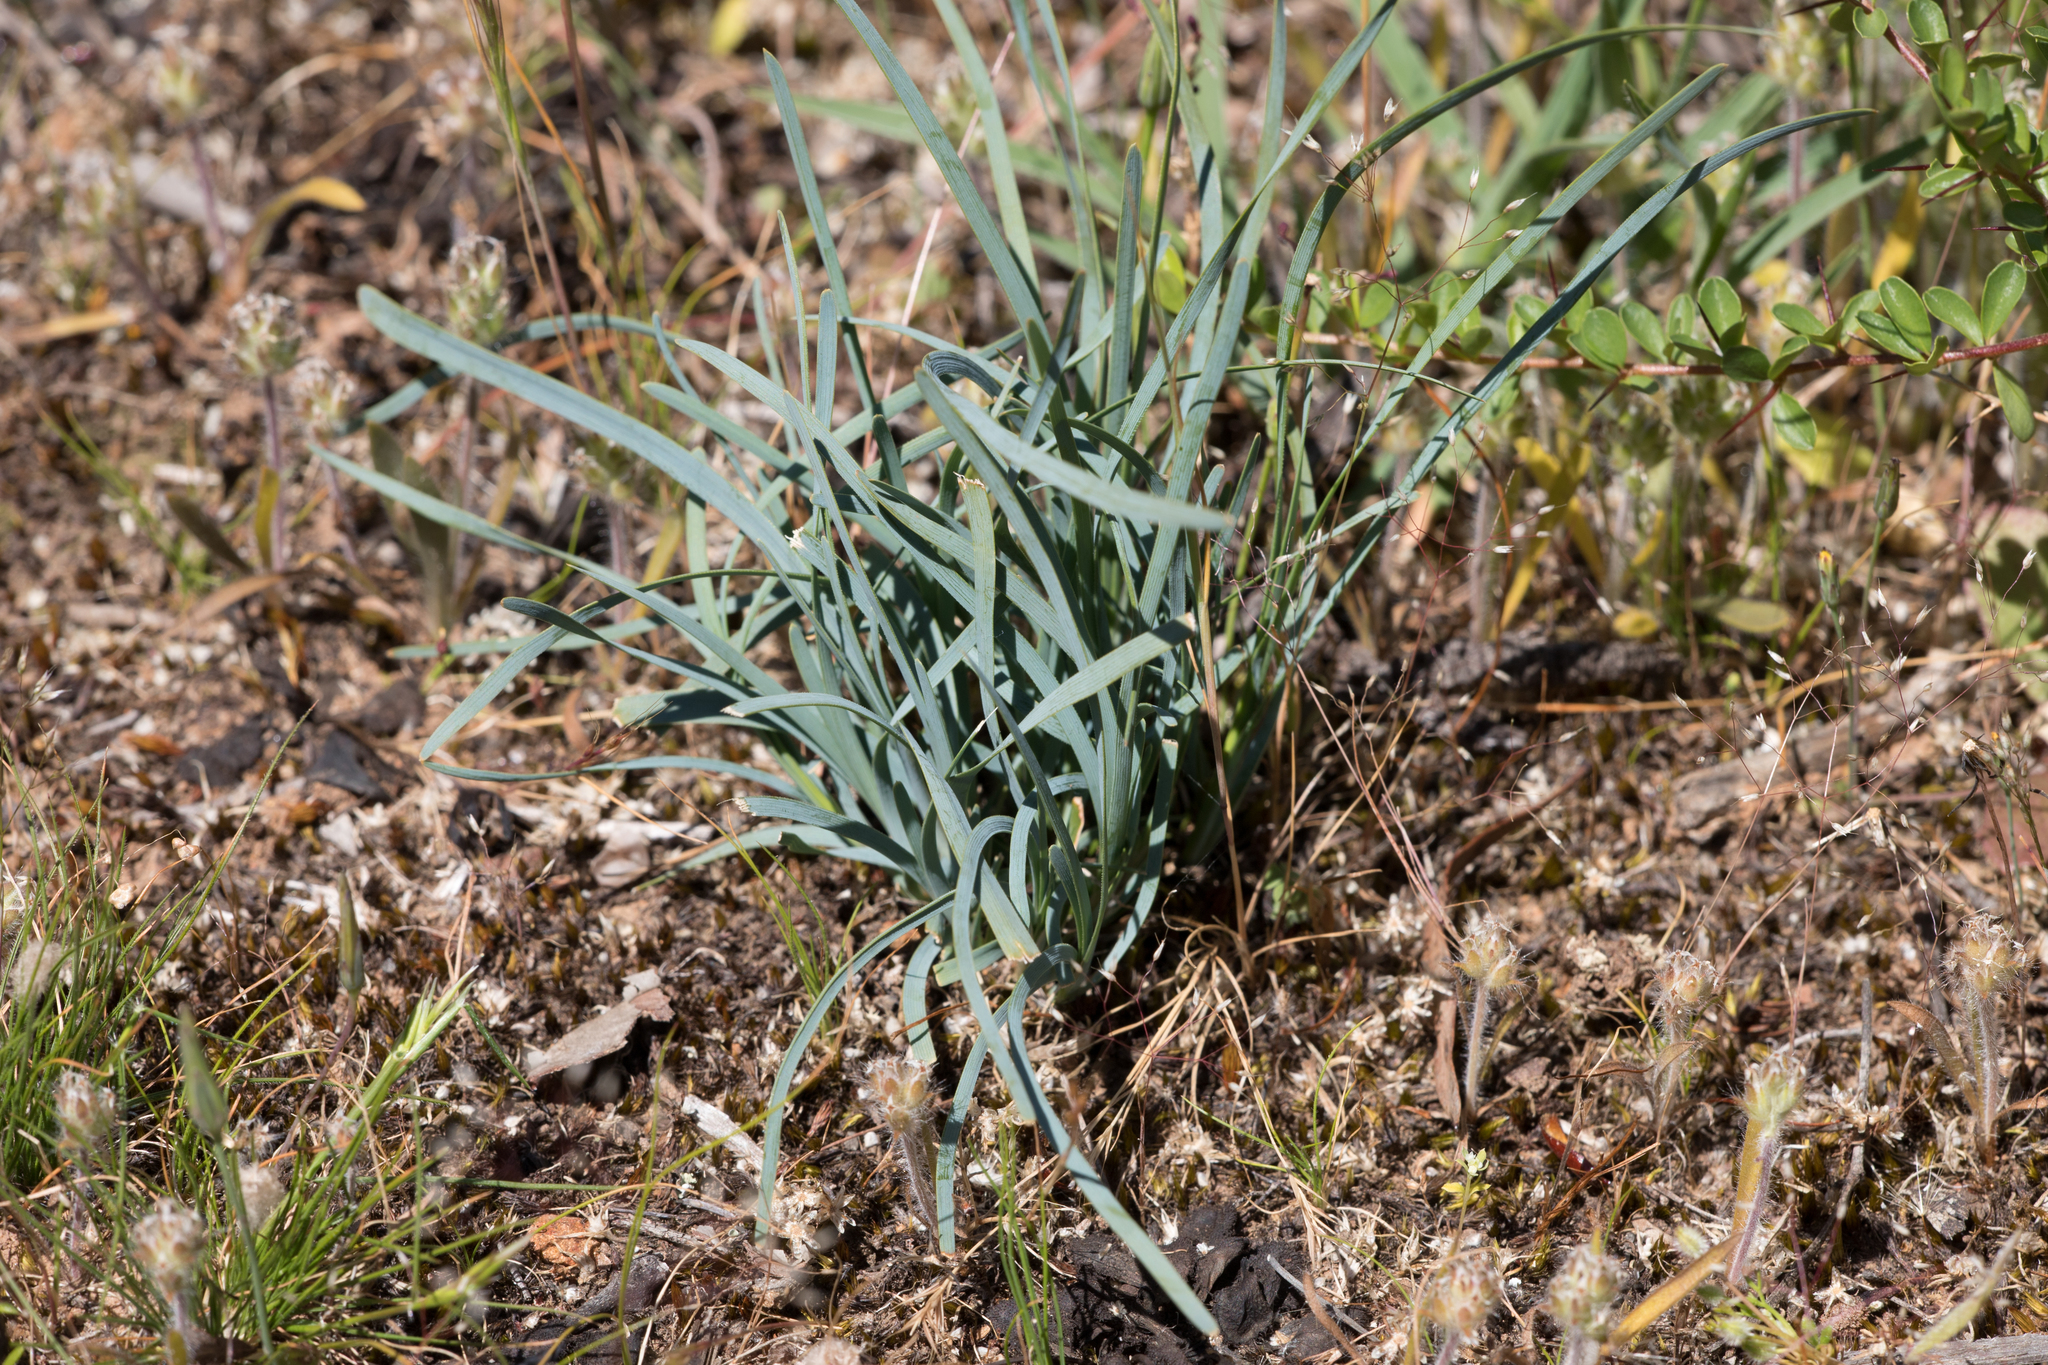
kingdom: Plantae
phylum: Tracheophyta
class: Liliopsida
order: Asparagales
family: Asparagaceae
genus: Lomandra
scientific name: Lomandra nana
